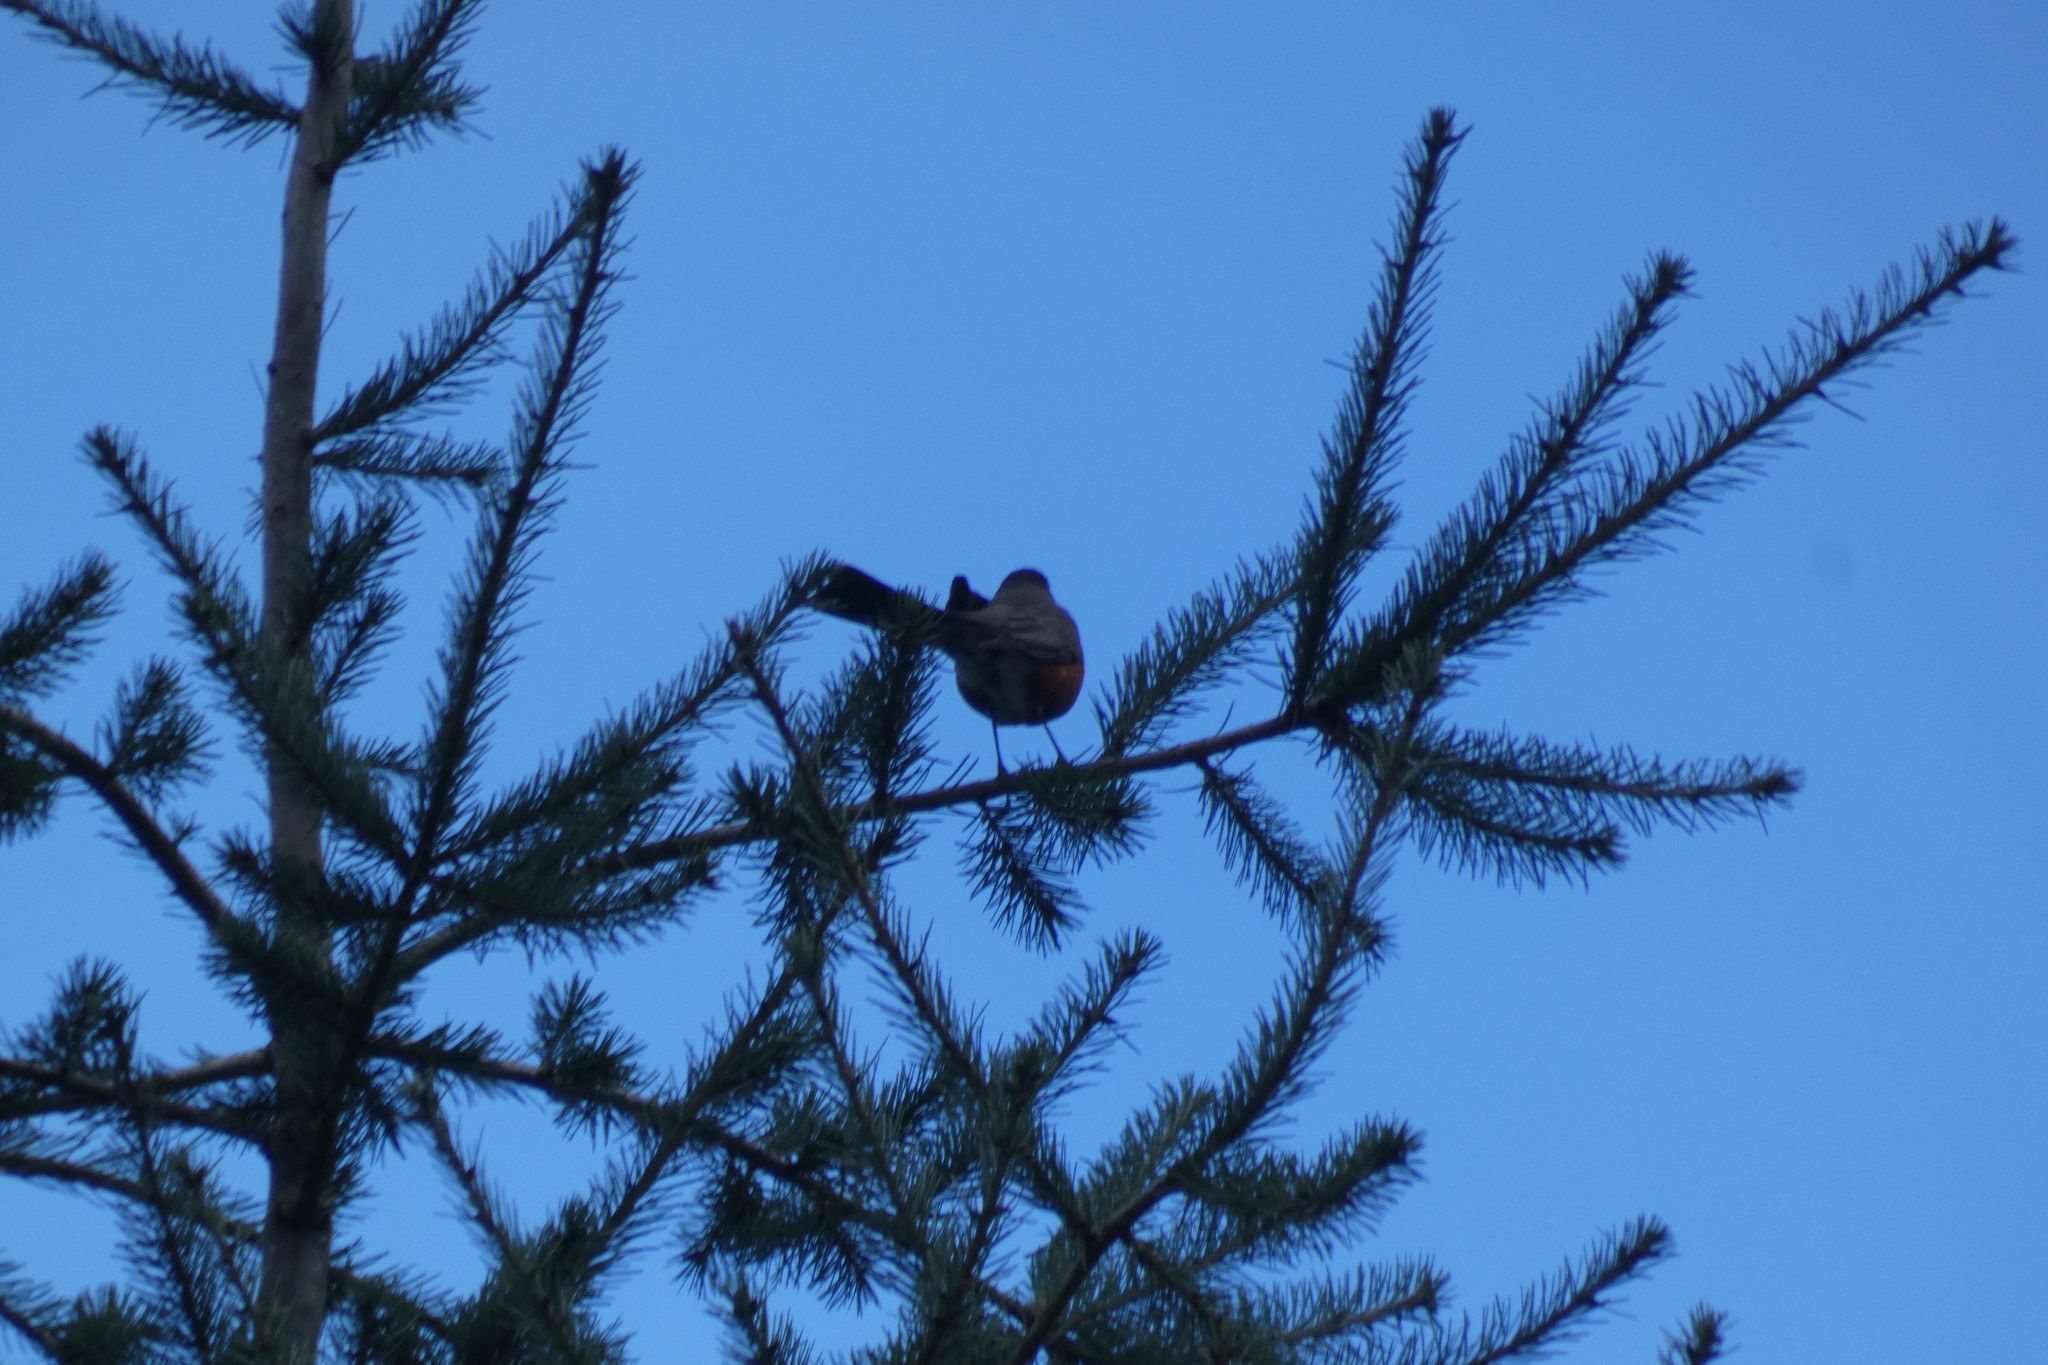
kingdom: Animalia
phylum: Chordata
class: Aves
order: Passeriformes
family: Turdidae
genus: Turdus
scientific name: Turdus migratorius
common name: American robin
